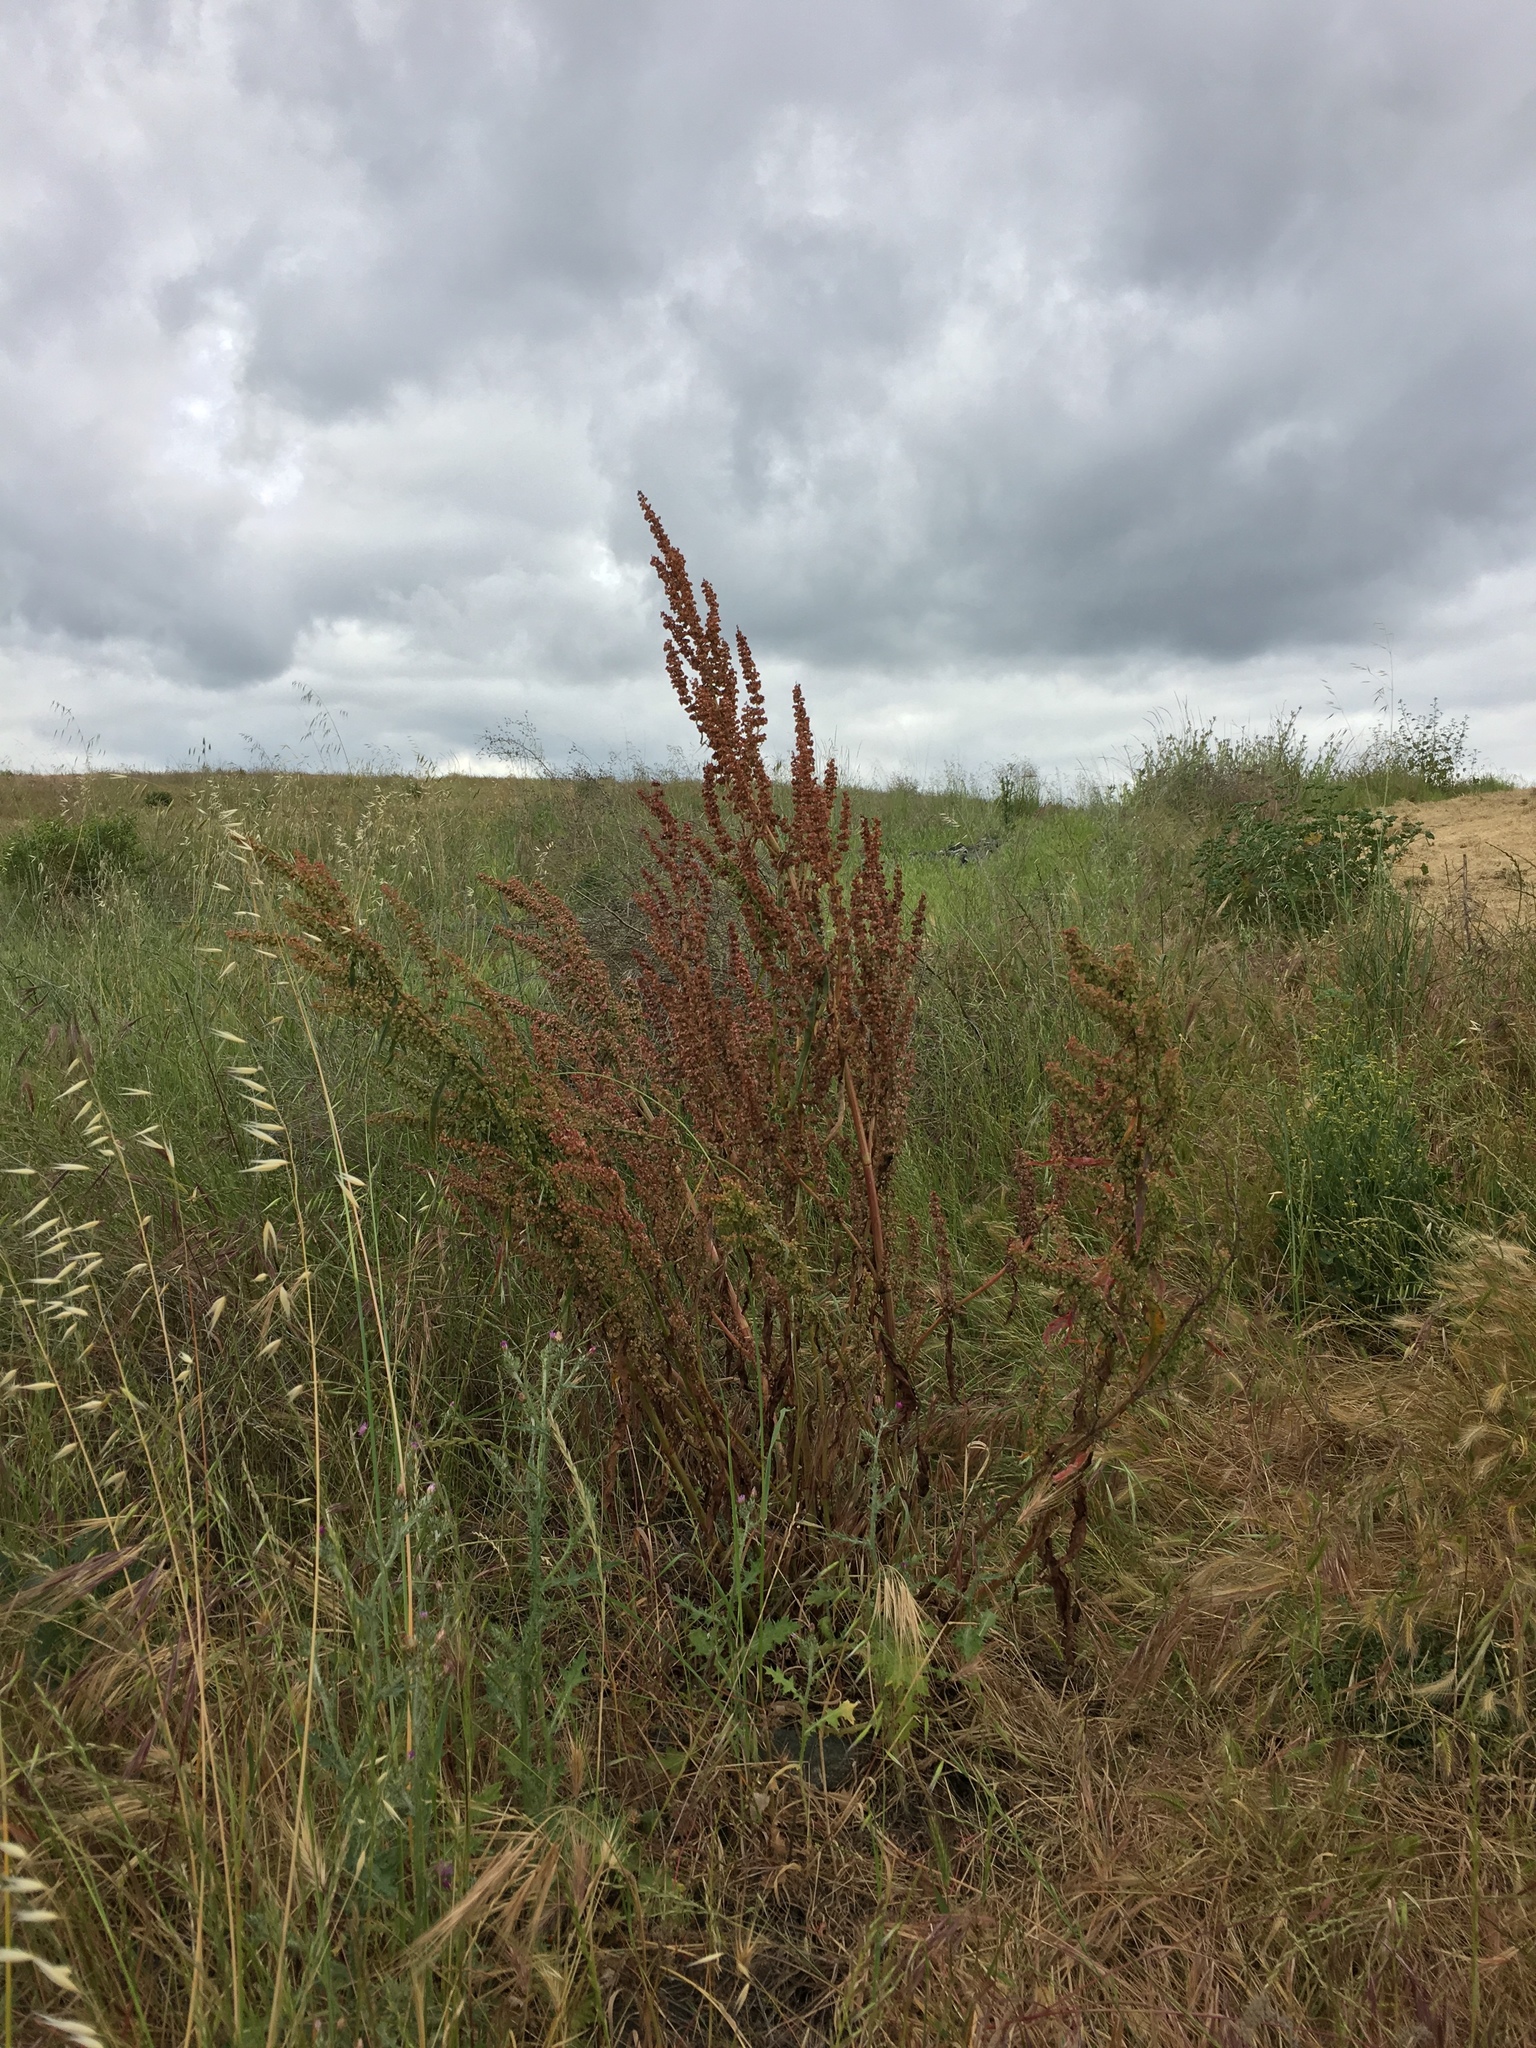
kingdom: Plantae
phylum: Tracheophyta
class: Magnoliopsida
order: Caryophyllales
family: Polygonaceae
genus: Rumex
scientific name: Rumex crispus
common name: Curled dock
